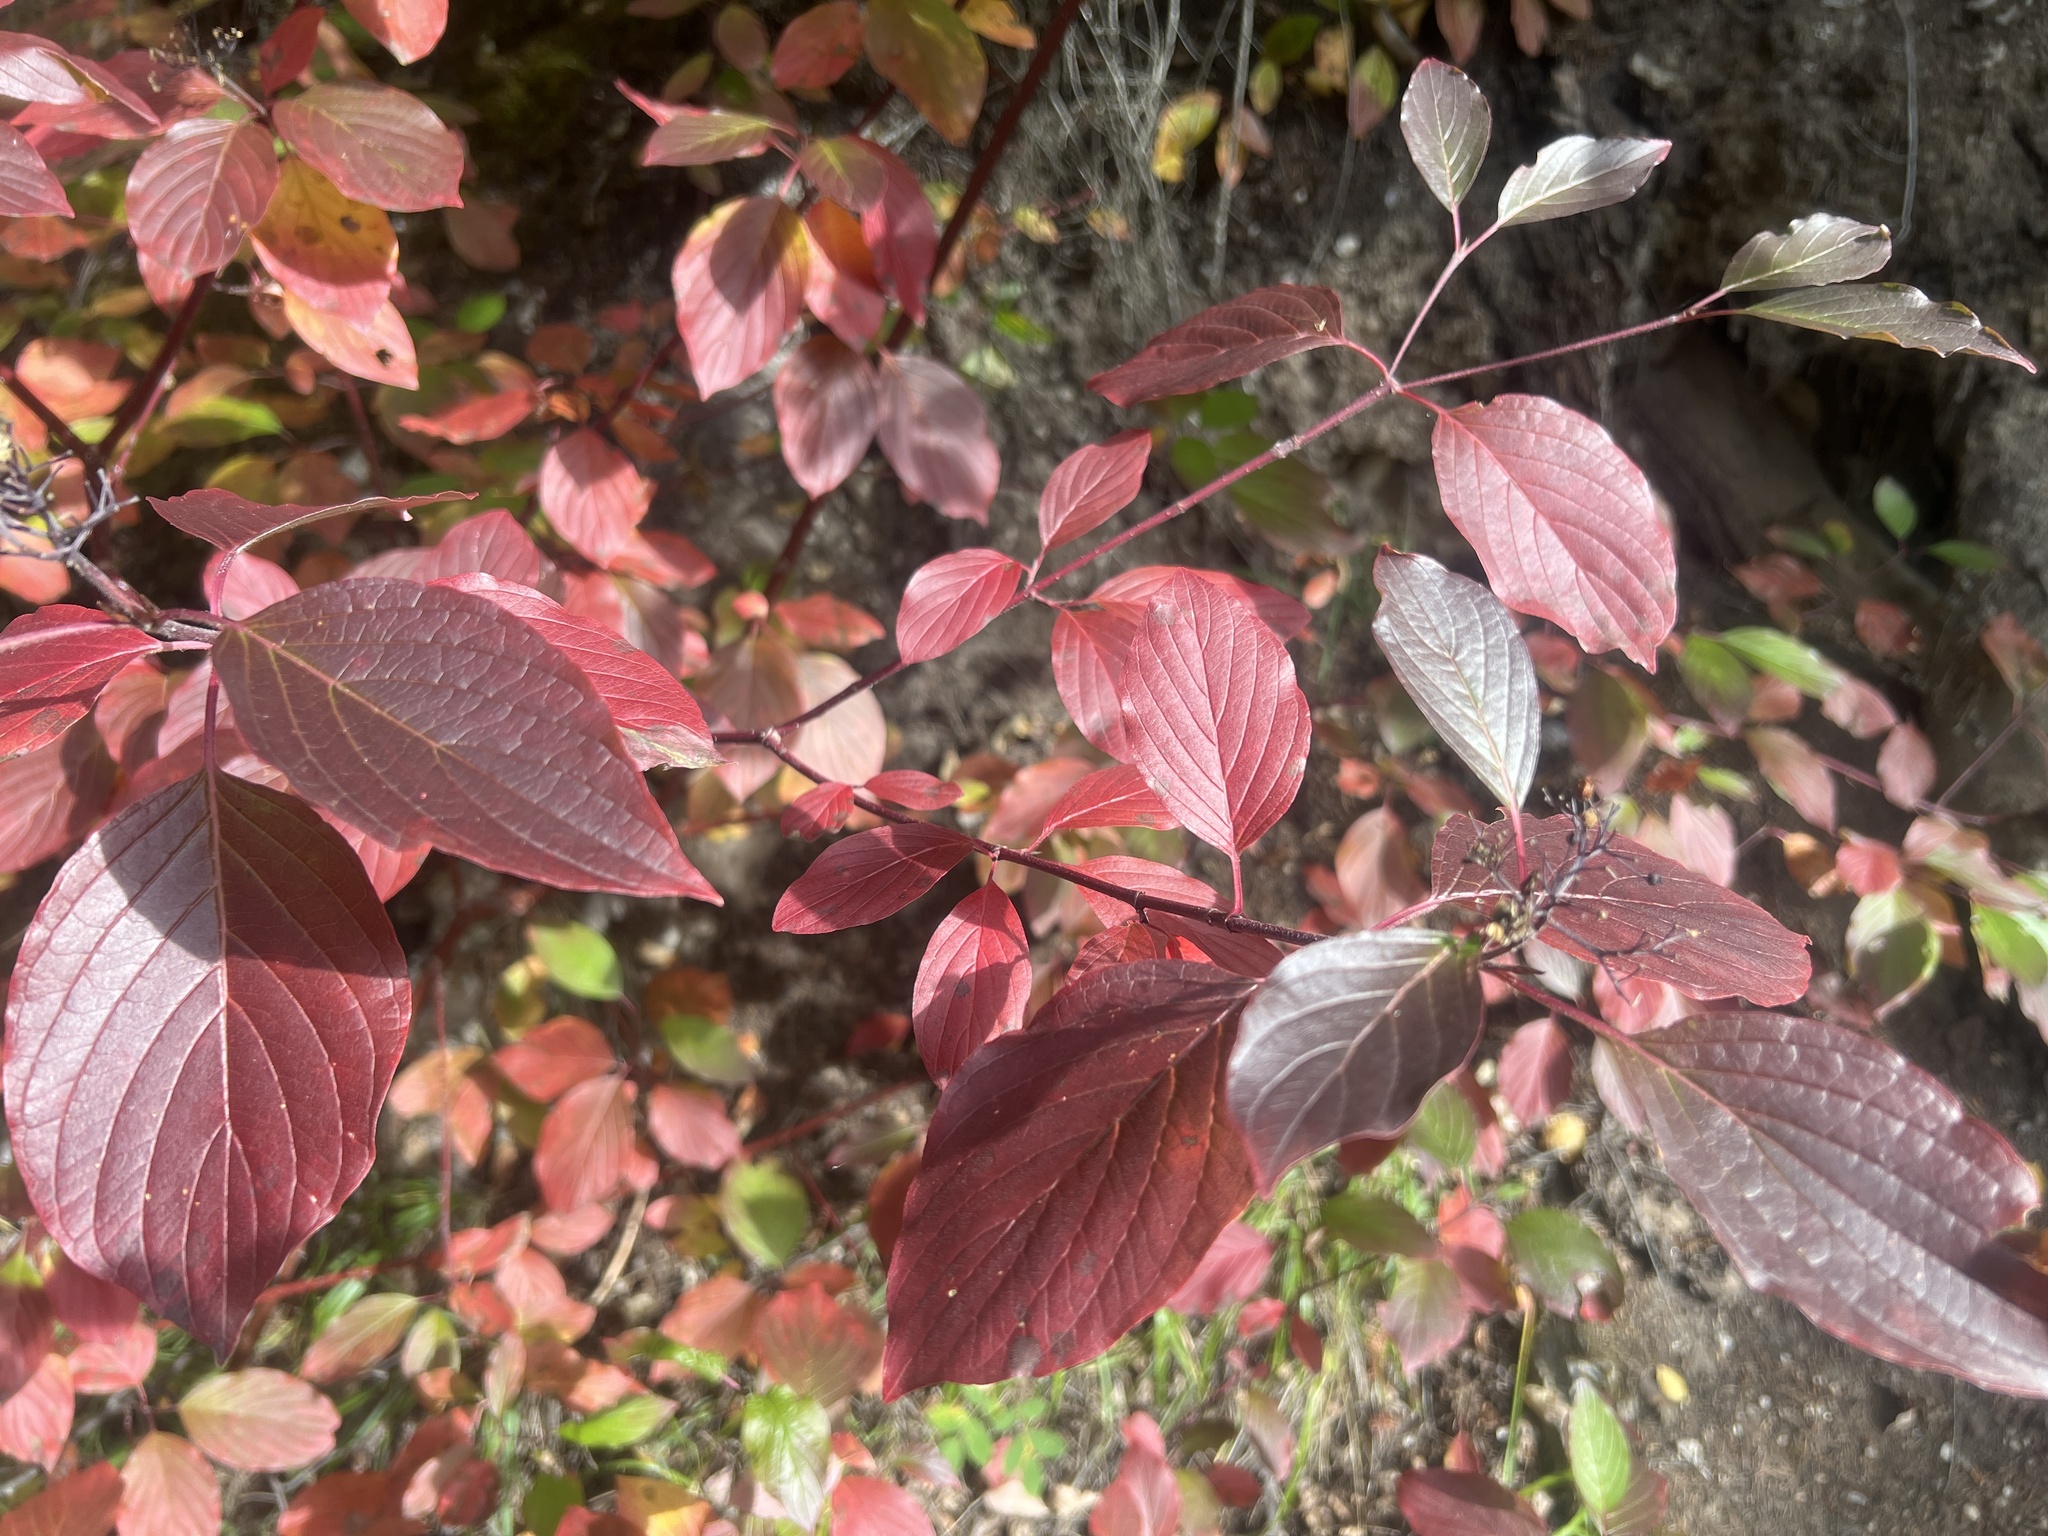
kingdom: Plantae
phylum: Tracheophyta
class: Magnoliopsida
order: Cornales
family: Cornaceae
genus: Cornus
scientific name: Cornus sericea
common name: Red-osier dogwood
